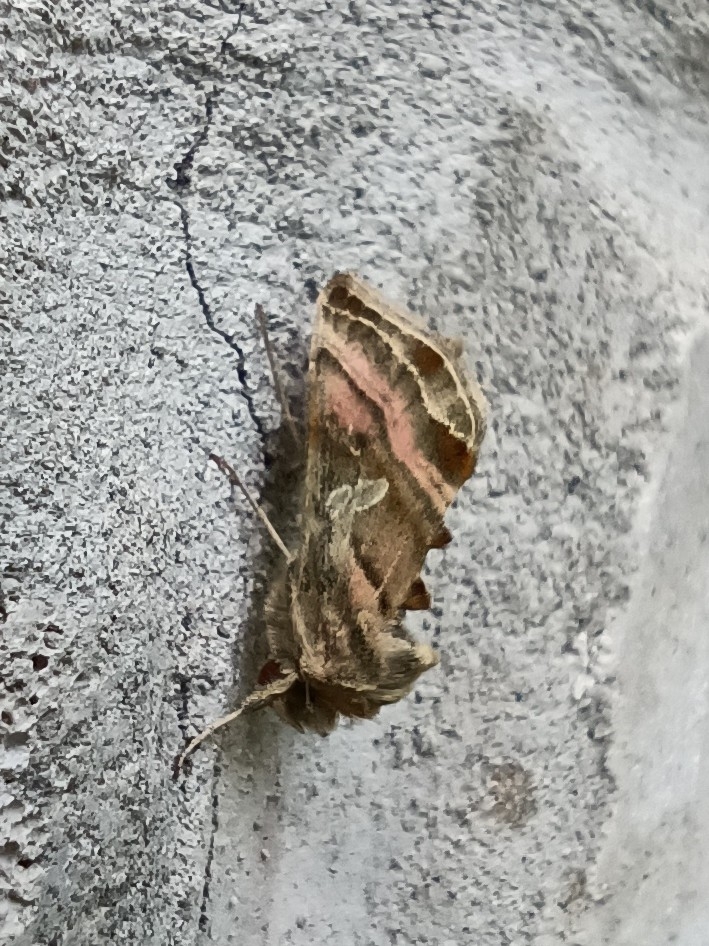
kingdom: Animalia
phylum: Arthropoda
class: Insecta
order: Lepidoptera
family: Noctuidae
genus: Euchalcia
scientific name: Euchalcia variabilis
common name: Purple-shaded gem
